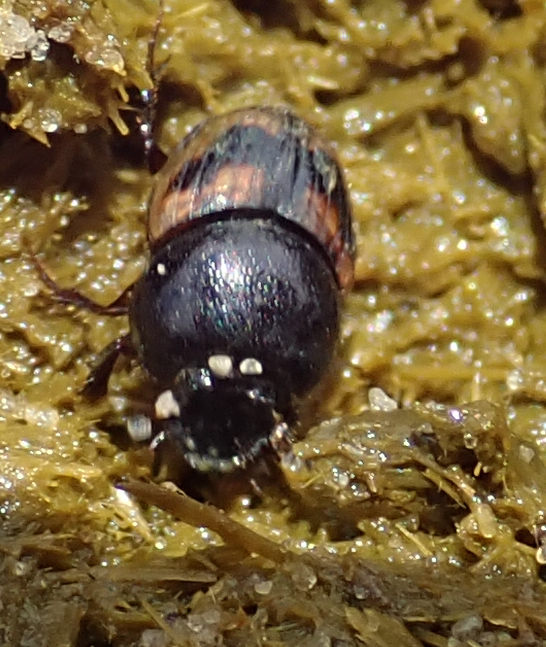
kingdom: Animalia
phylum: Arthropoda
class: Insecta
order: Coleoptera
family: Scarabaeidae
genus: Onthophagus
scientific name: Onthophagus flavolimbatus
